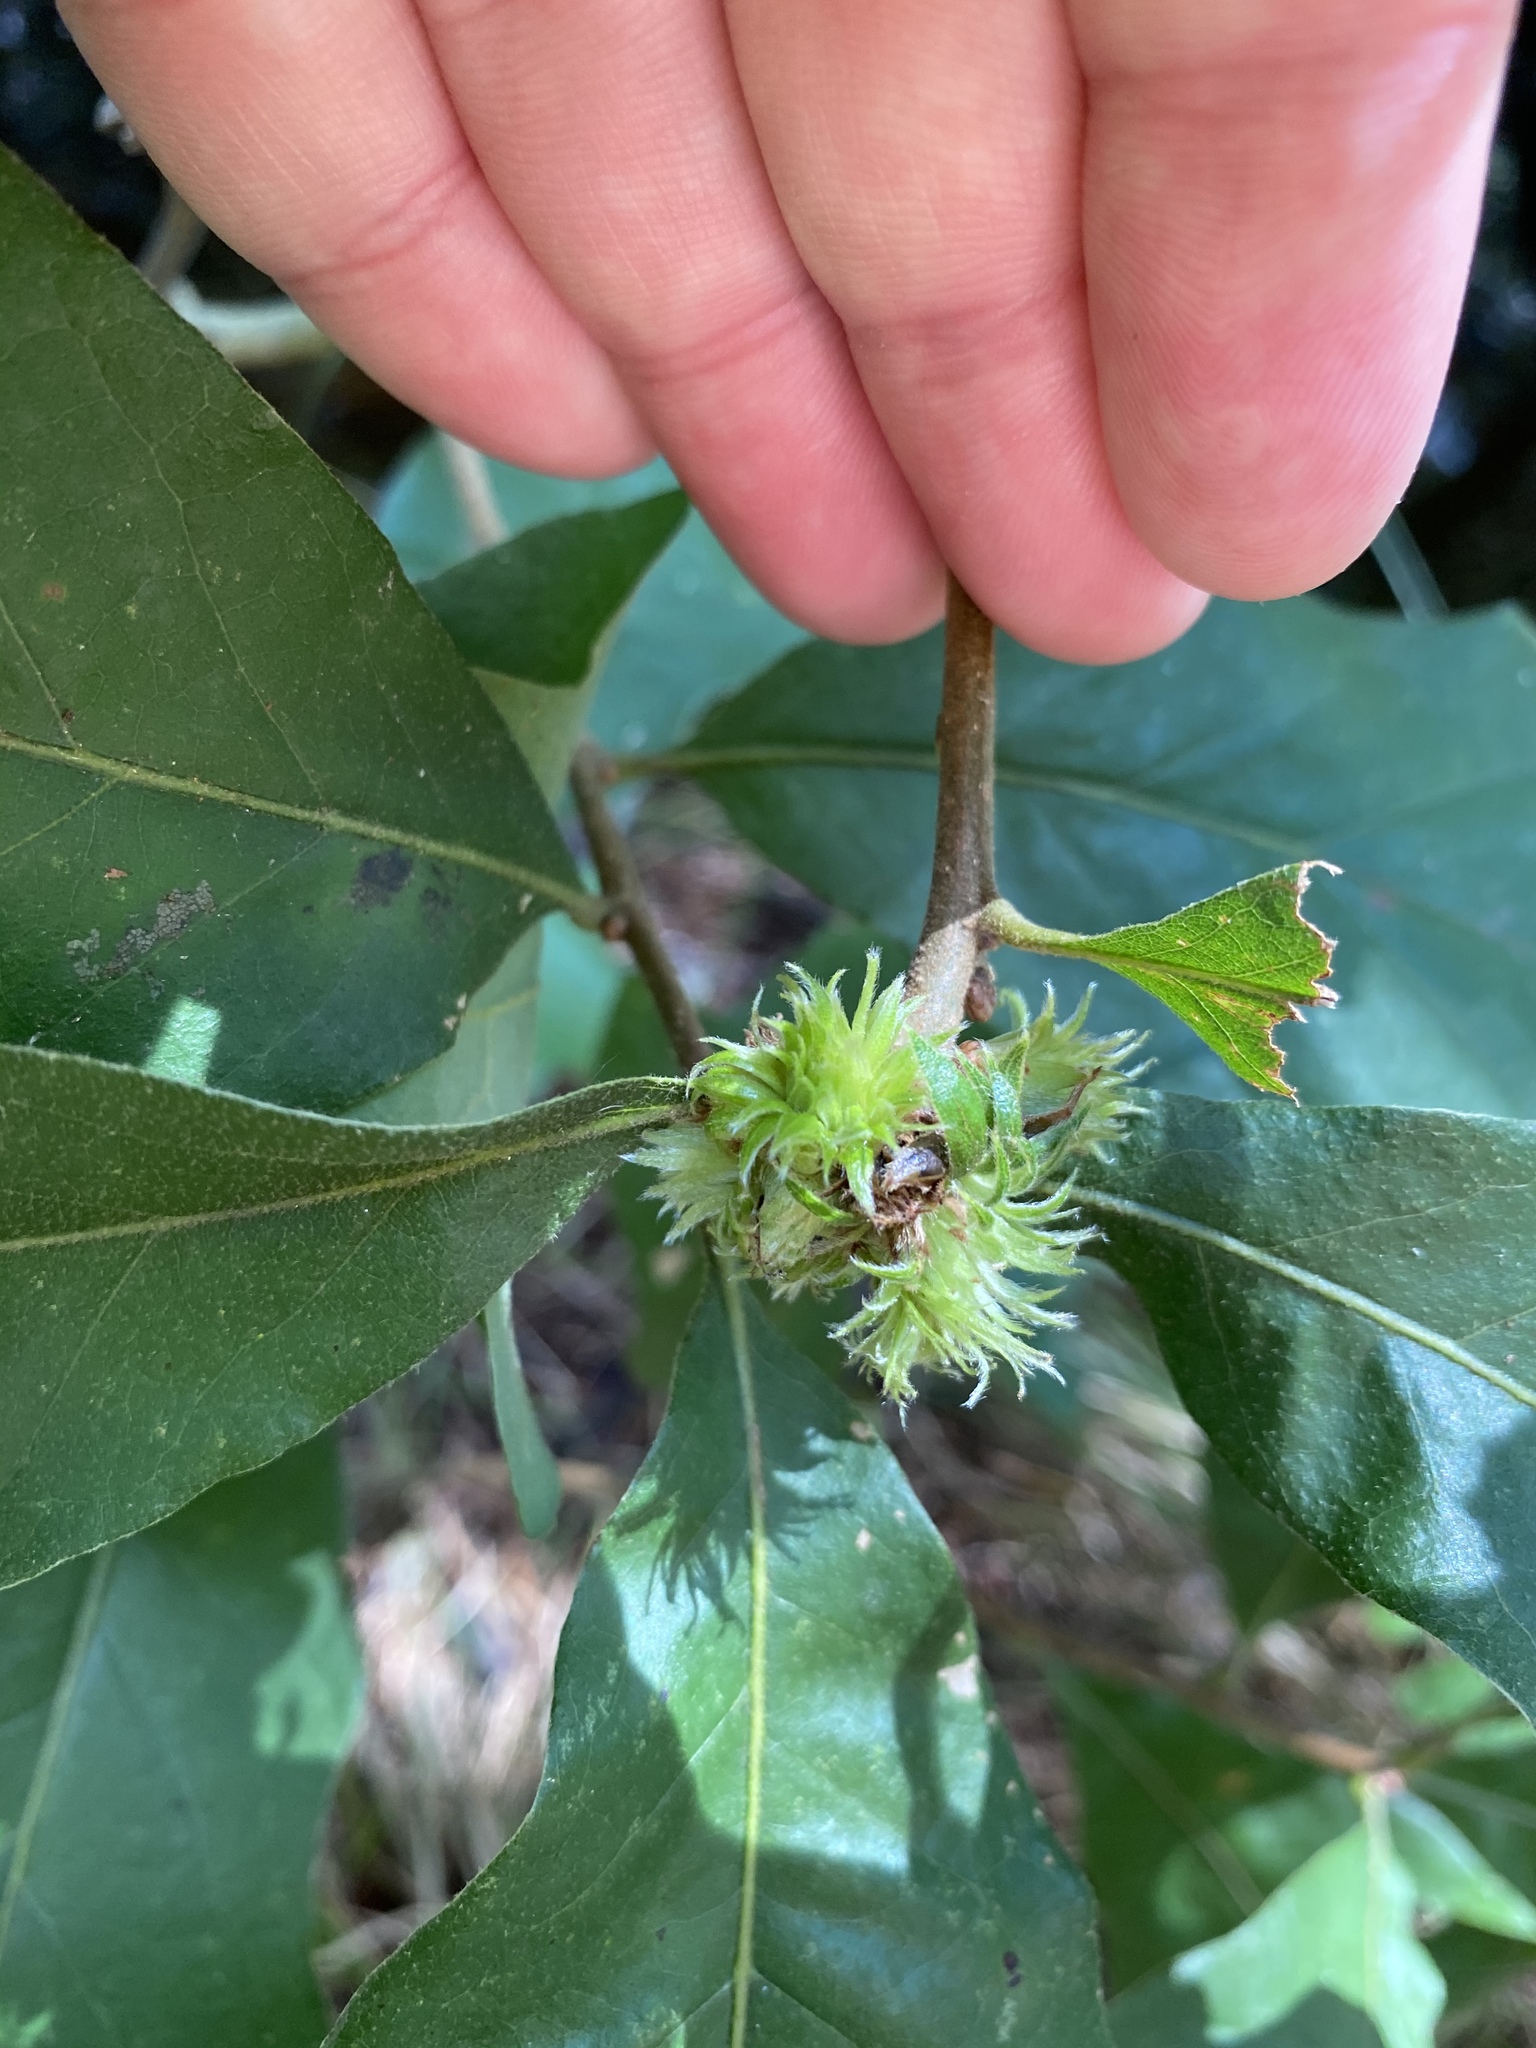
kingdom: Animalia
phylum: Arthropoda
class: Insecta
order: Hymenoptera
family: Cynipidae
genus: Andricus
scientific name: Andricus
